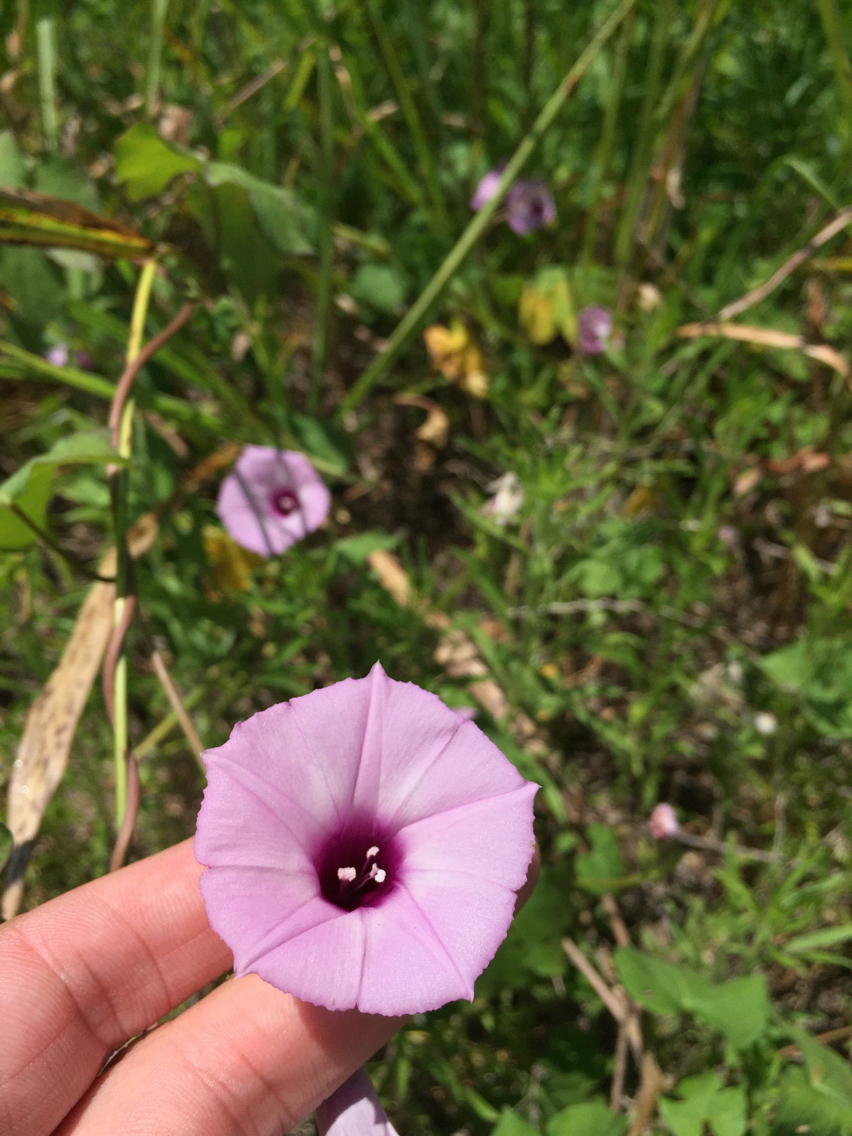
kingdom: Plantae
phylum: Tracheophyta
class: Magnoliopsida
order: Solanales
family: Convolvulaceae
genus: Ipomoea
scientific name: Ipomoea cordatotriloba
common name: Cotton morning glory
